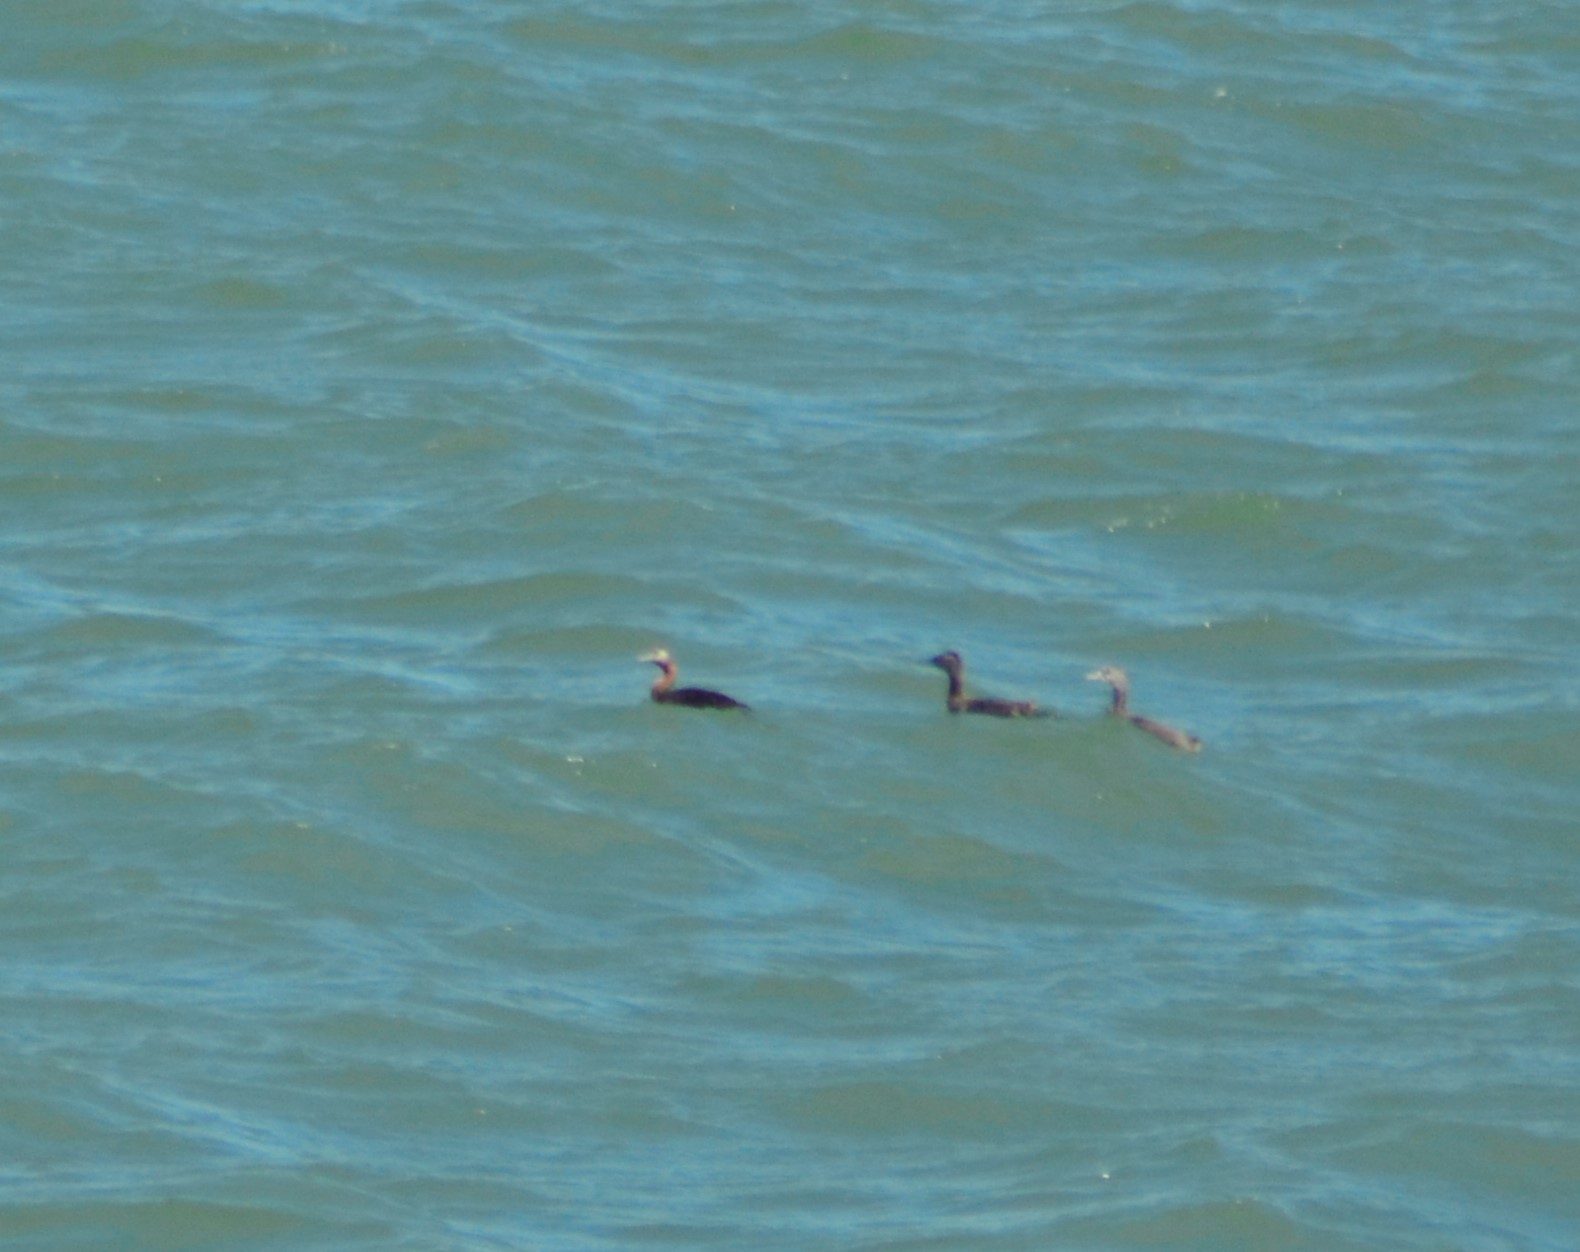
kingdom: Animalia
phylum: Chordata
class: Aves
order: Podicipediformes
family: Podicipedidae
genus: Podiceps
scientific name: Podiceps major
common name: Great grebe
